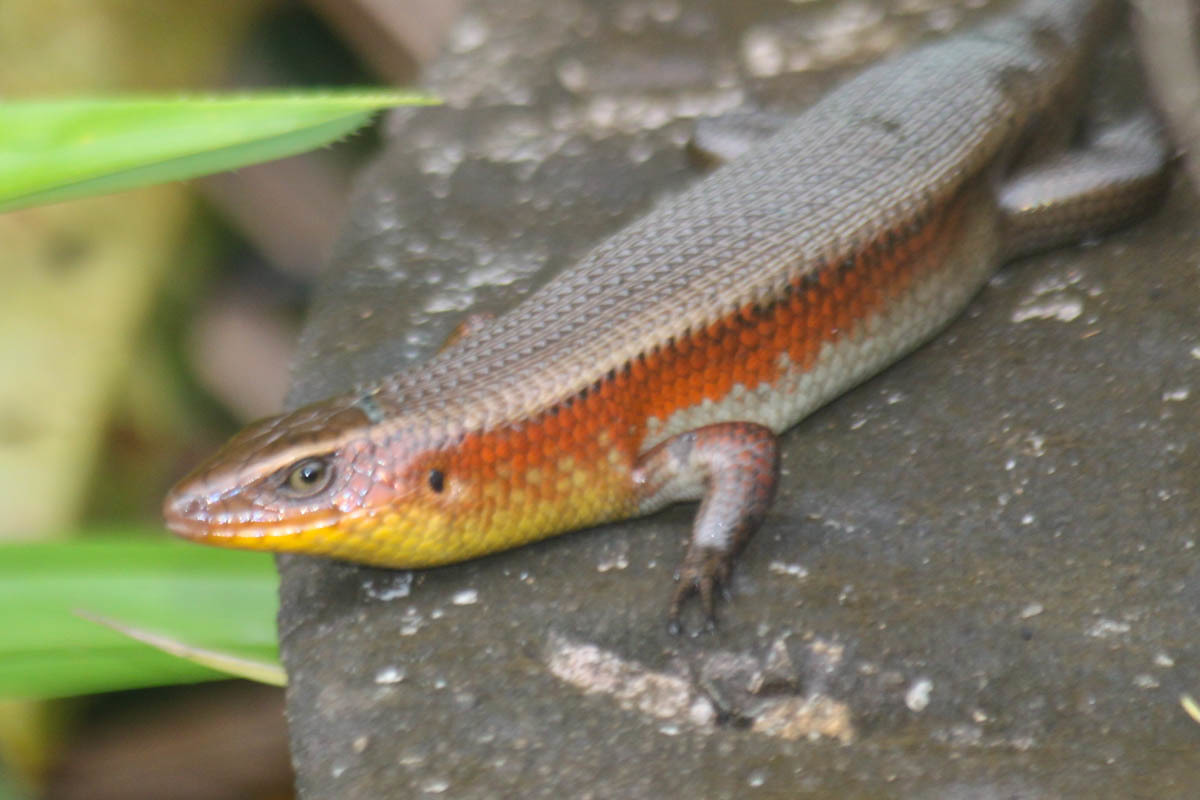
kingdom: Animalia
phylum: Chordata
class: Squamata
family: Scincidae
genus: Eutropis
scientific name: Eutropis multifasciata
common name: Common mabuya
